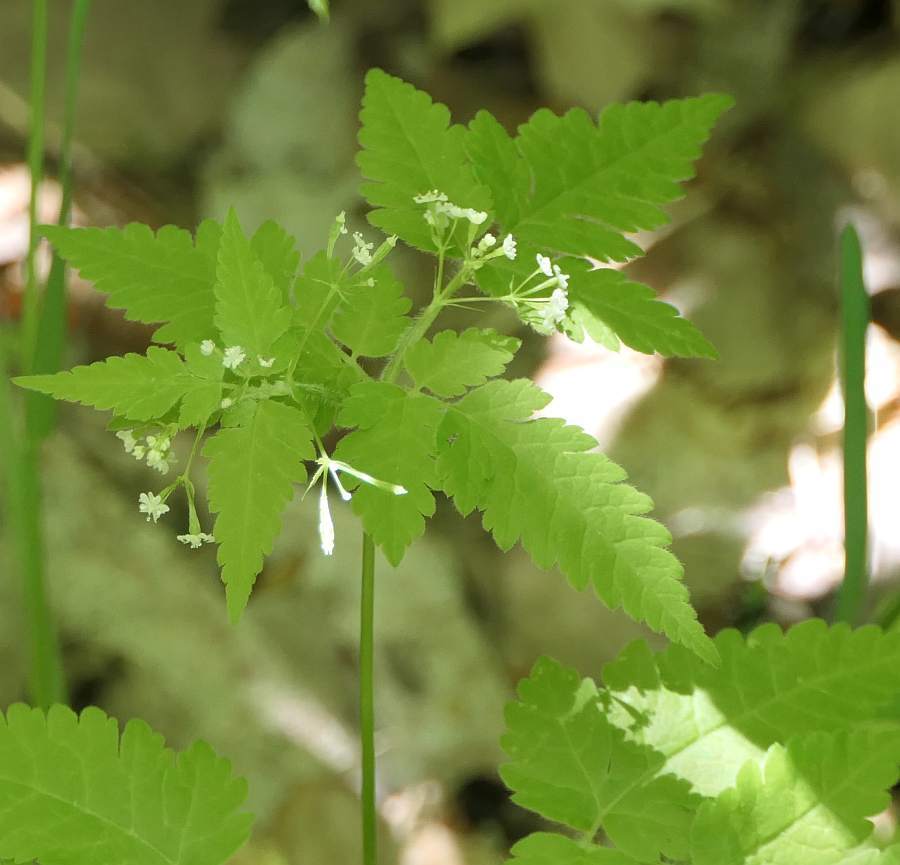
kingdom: Plantae
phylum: Tracheophyta
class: Magnoliopsida
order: Apiales
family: Apiaceae
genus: Osmorhiza
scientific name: Osmorhiza claytonii
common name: Hairy sweet cicely
